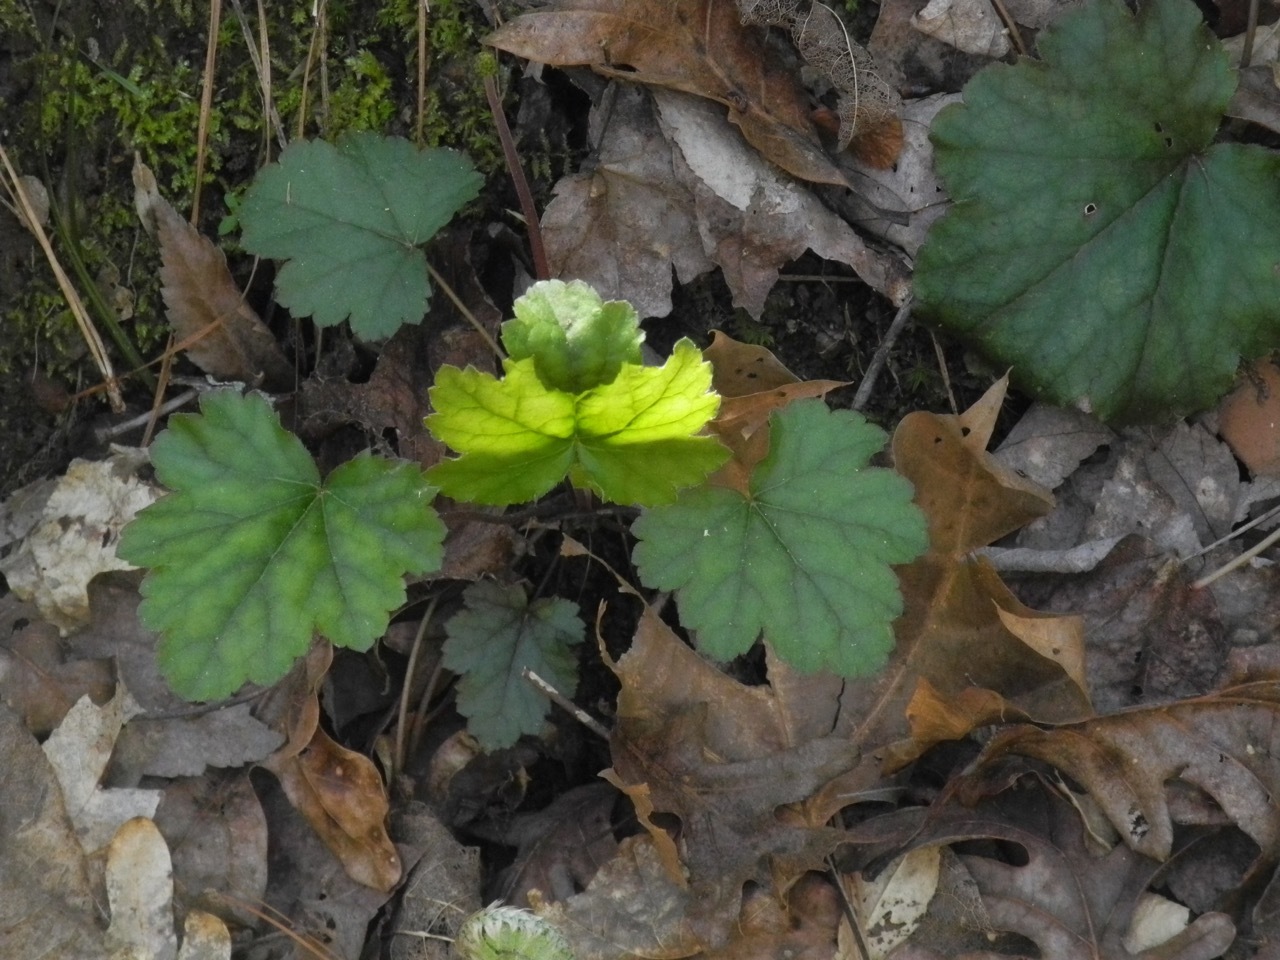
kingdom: Plantae
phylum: Tracheophyta
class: Magnoliopsida
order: Saxifragales
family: Saxifragaceae
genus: Heuchera
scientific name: Heuchera americana
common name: Alumroot
